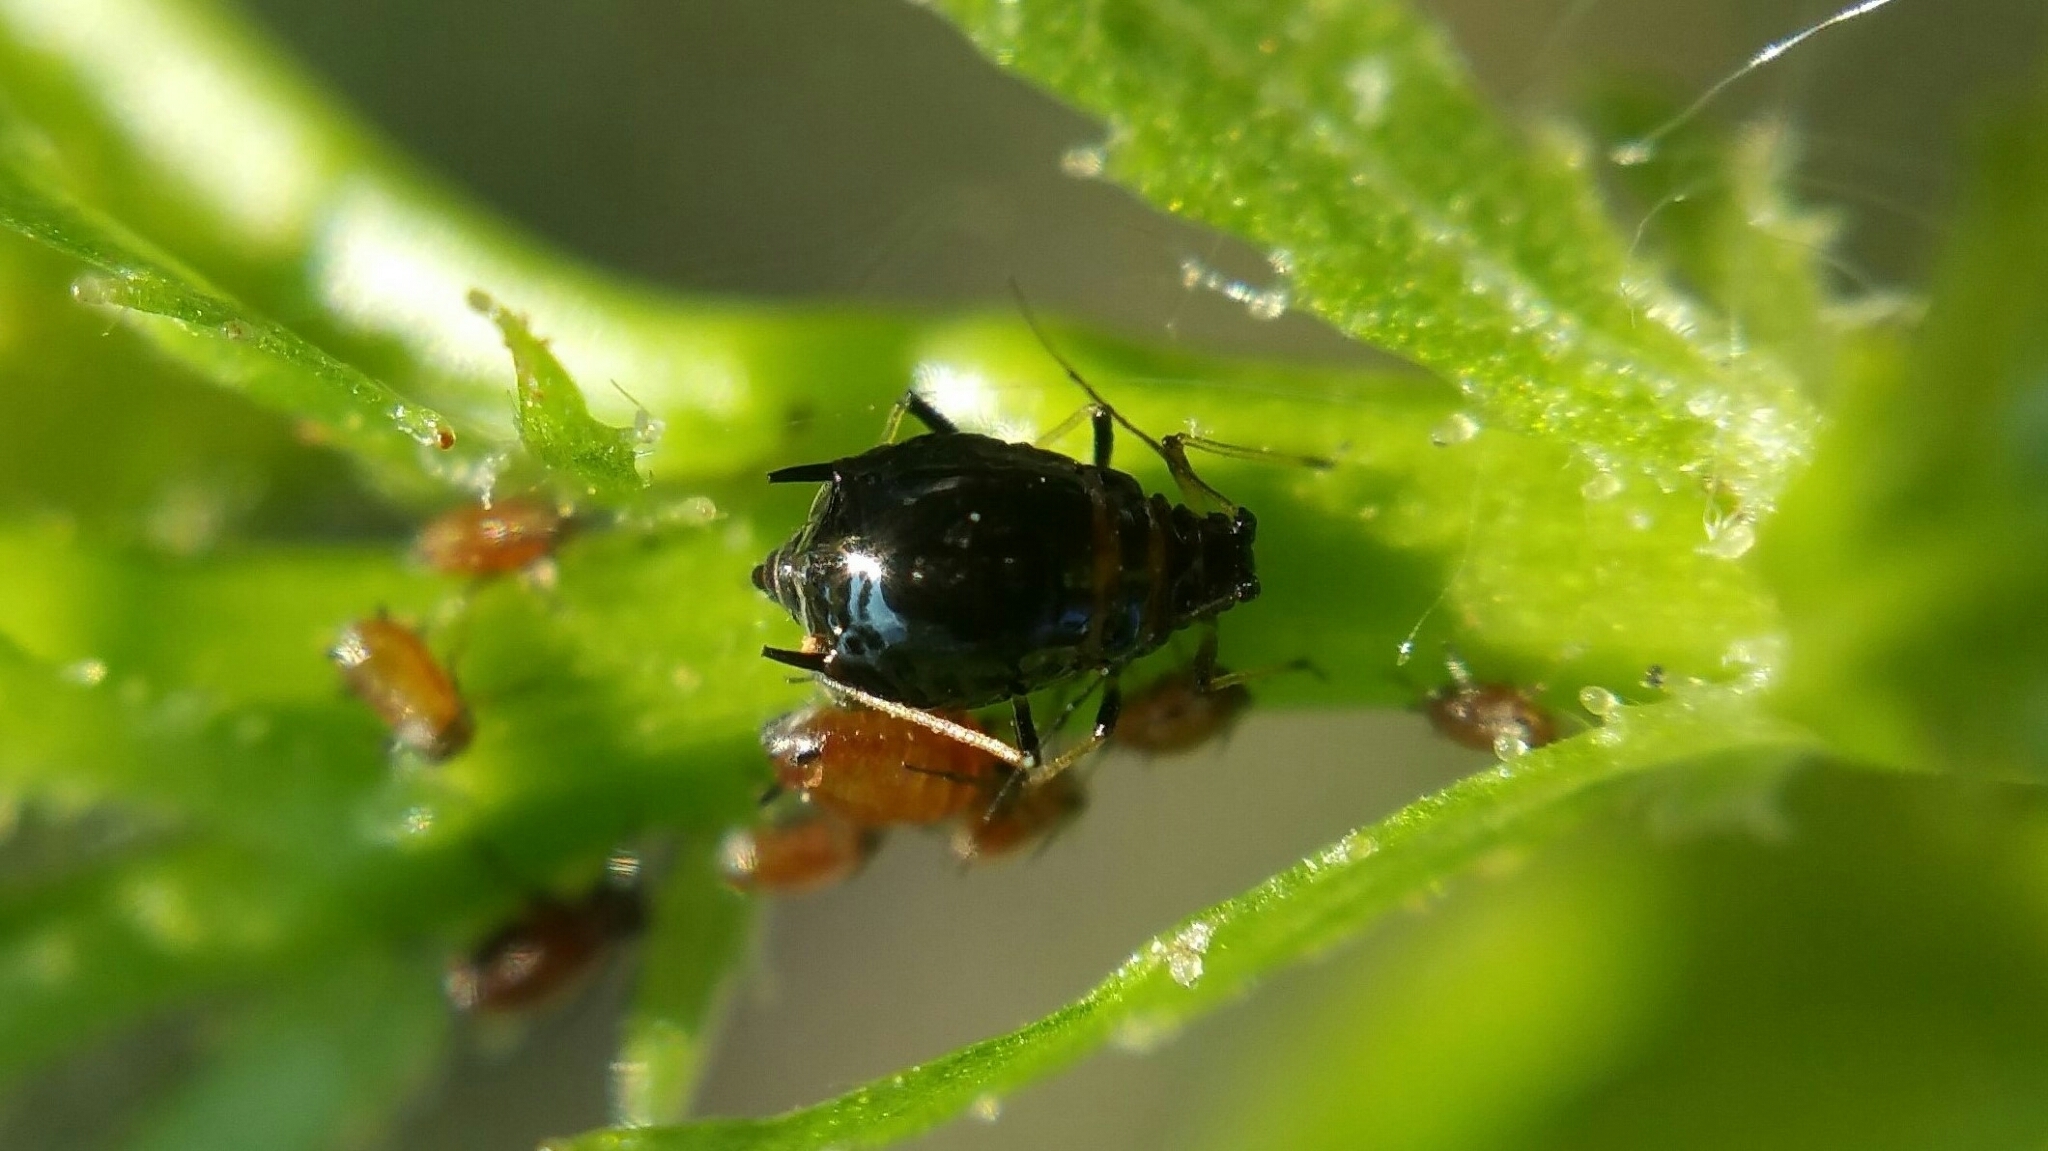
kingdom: Animalia
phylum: Arthropoda
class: Insecta
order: Hemiptera
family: Aphididae
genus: Brachycaudus
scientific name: Brachycaudus persicae
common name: Black peach aphid
